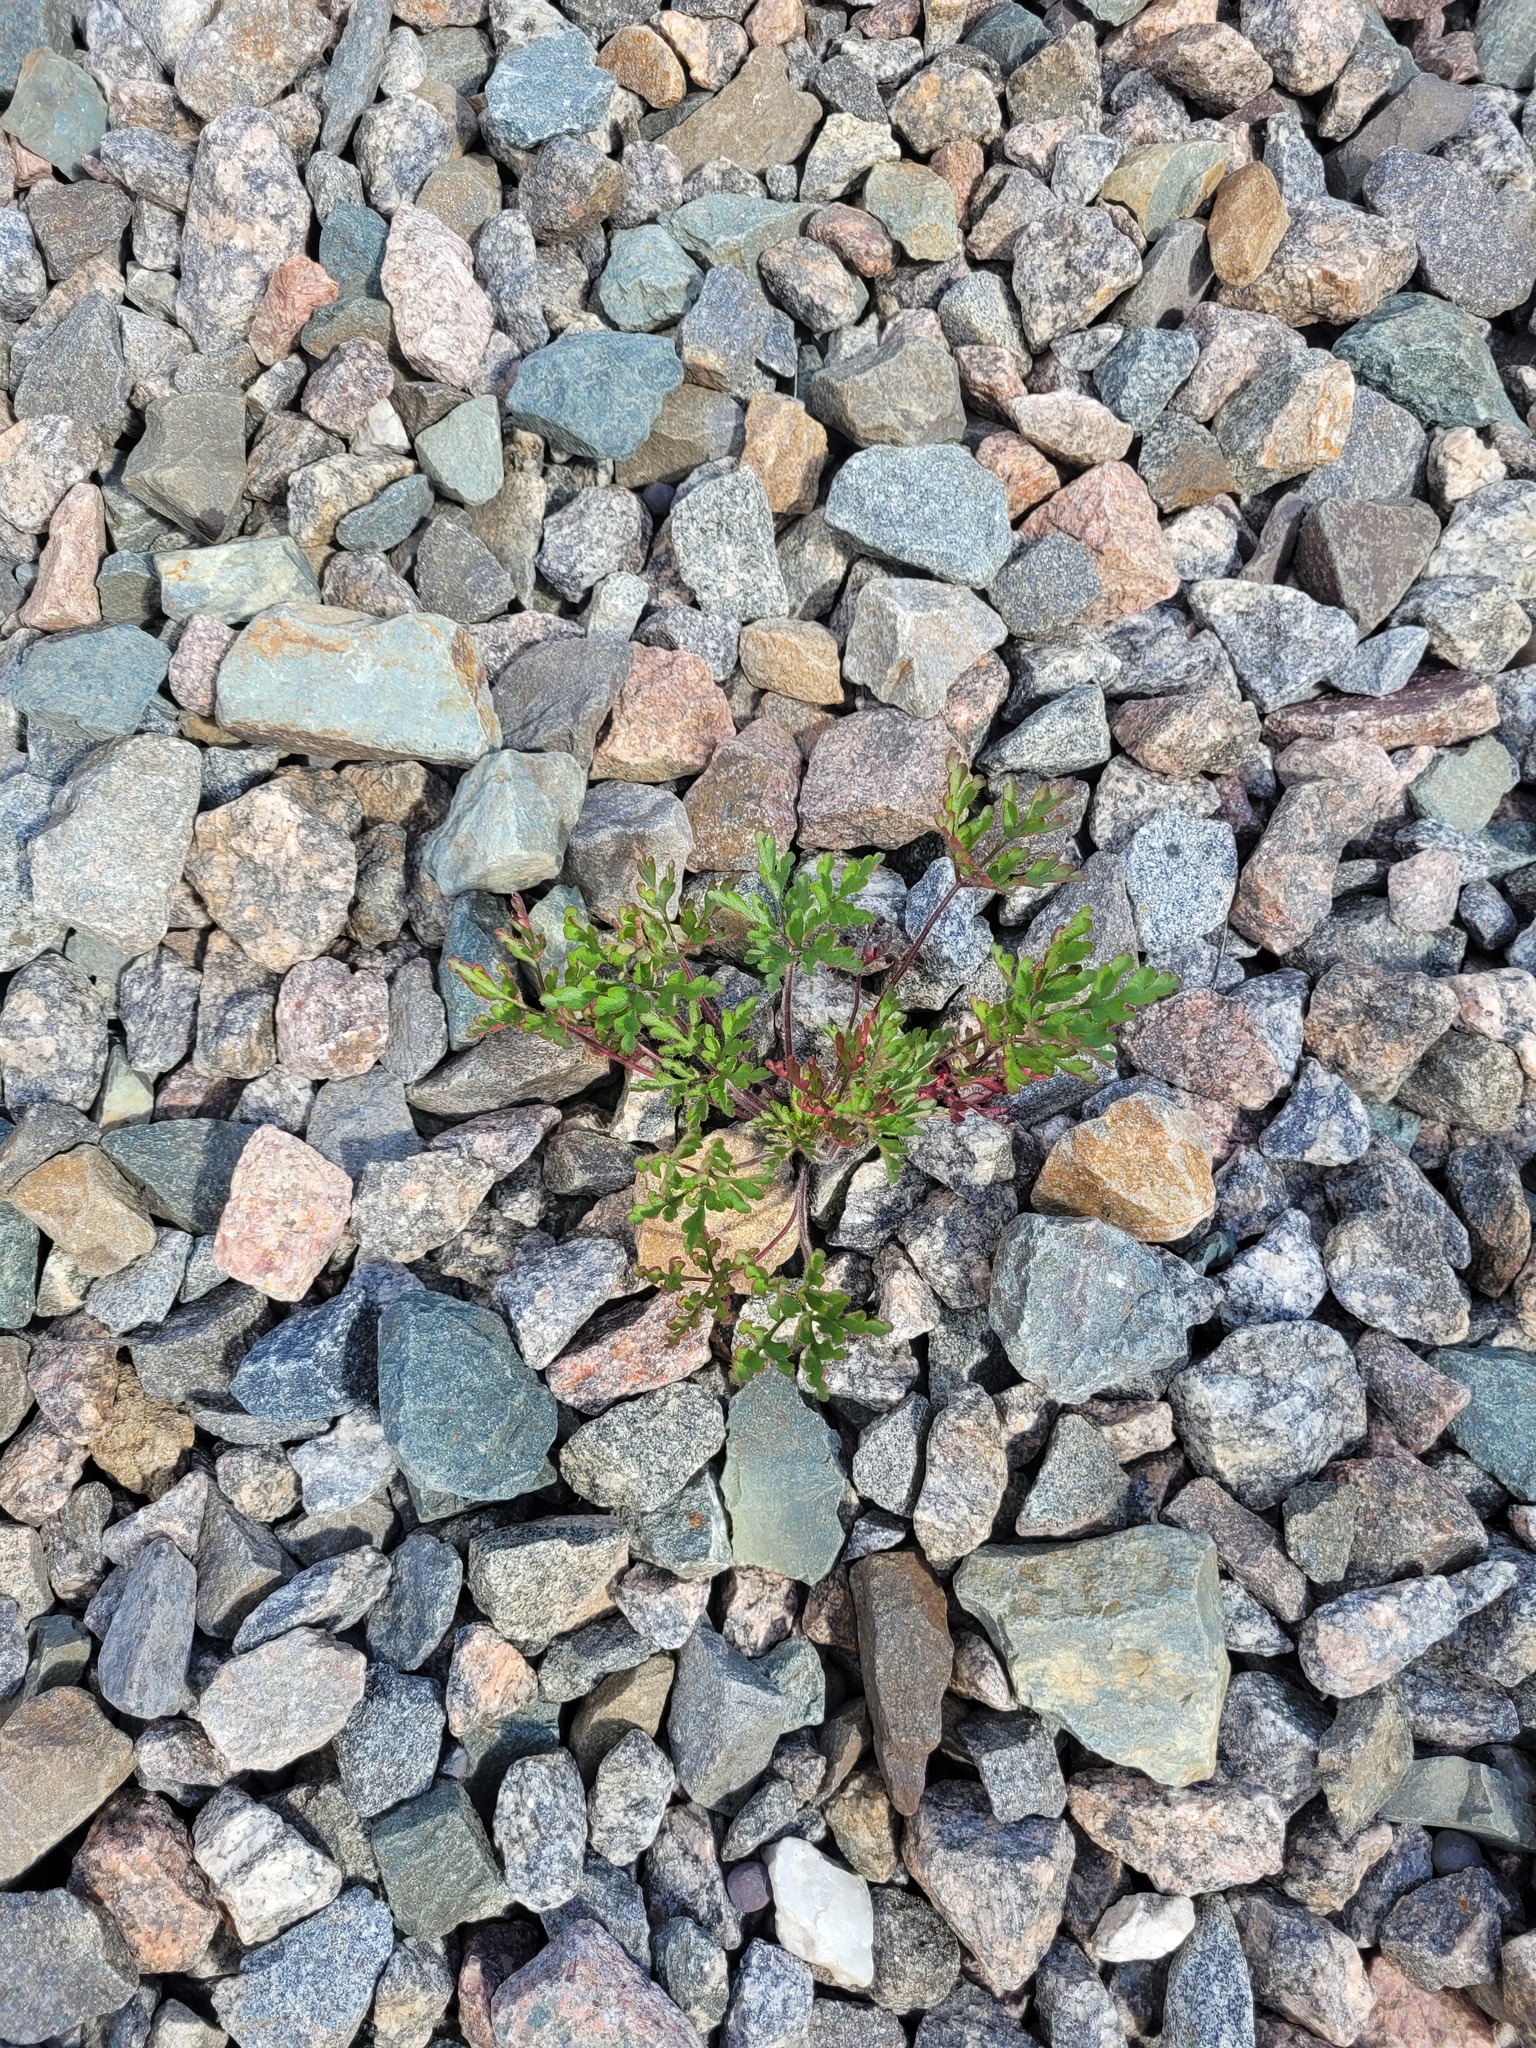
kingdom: Plantae
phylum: Tracheophyta
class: Magnoliopsida
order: Geraniales
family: Geraniaceae
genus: Geranium
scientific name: Geranium robertianum
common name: Herb-robert
